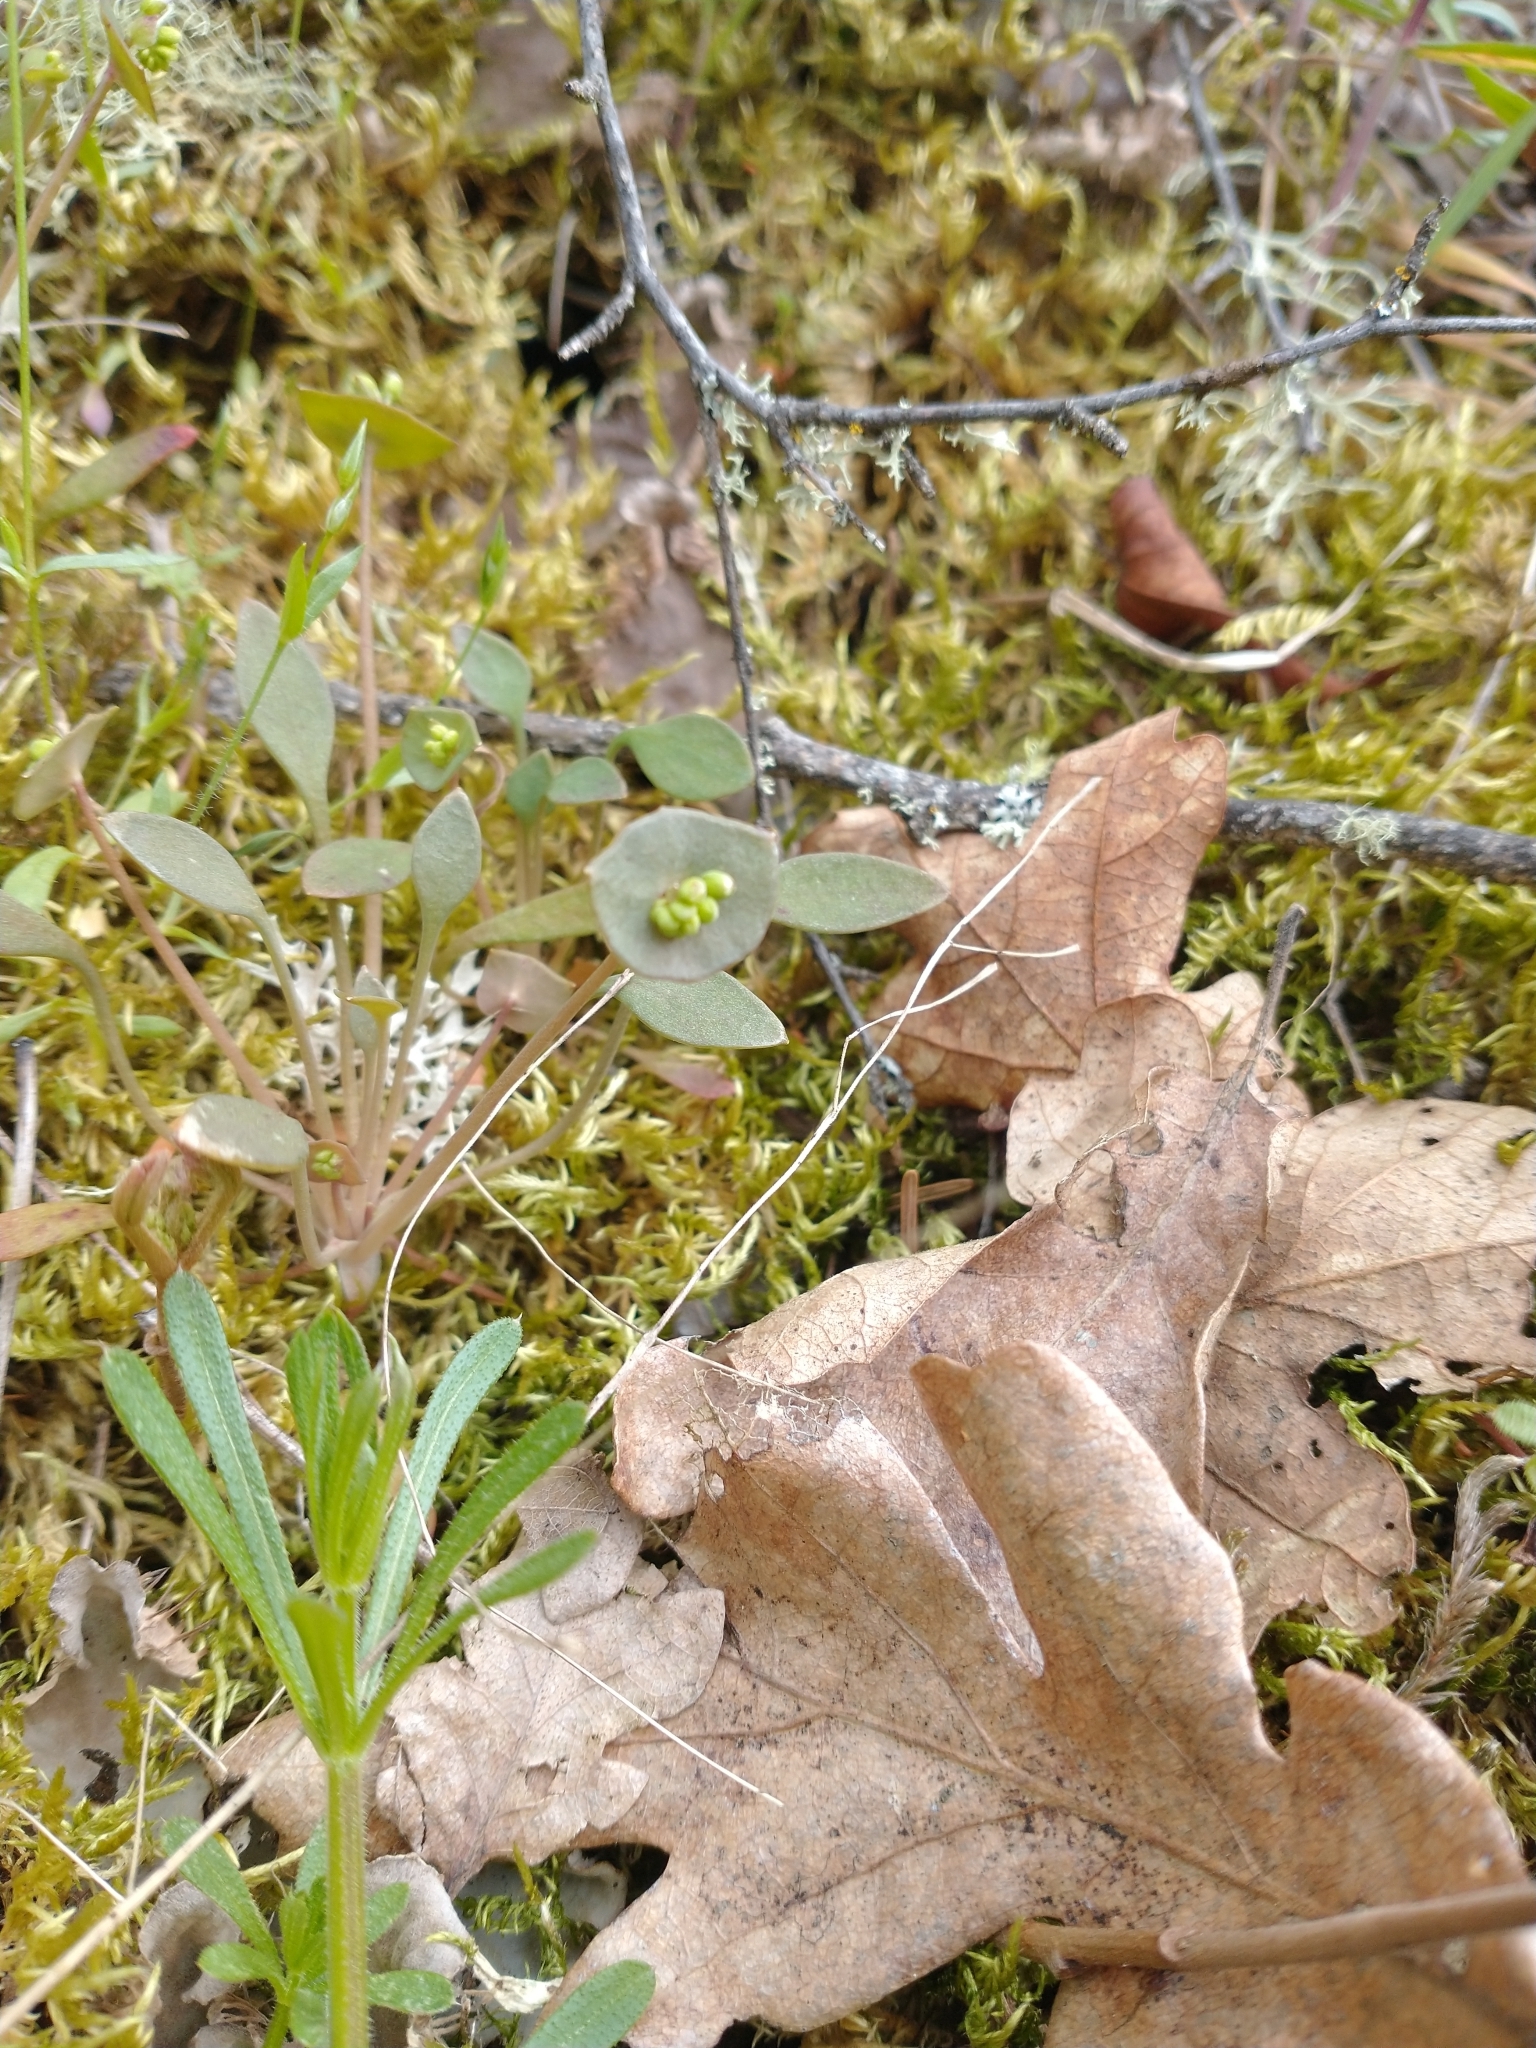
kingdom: Plantae
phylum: Tracheophyta
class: Magnoliopsida
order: Caryophyllales
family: Montiaceae
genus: Claytonia
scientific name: Claytonia perfoliata
